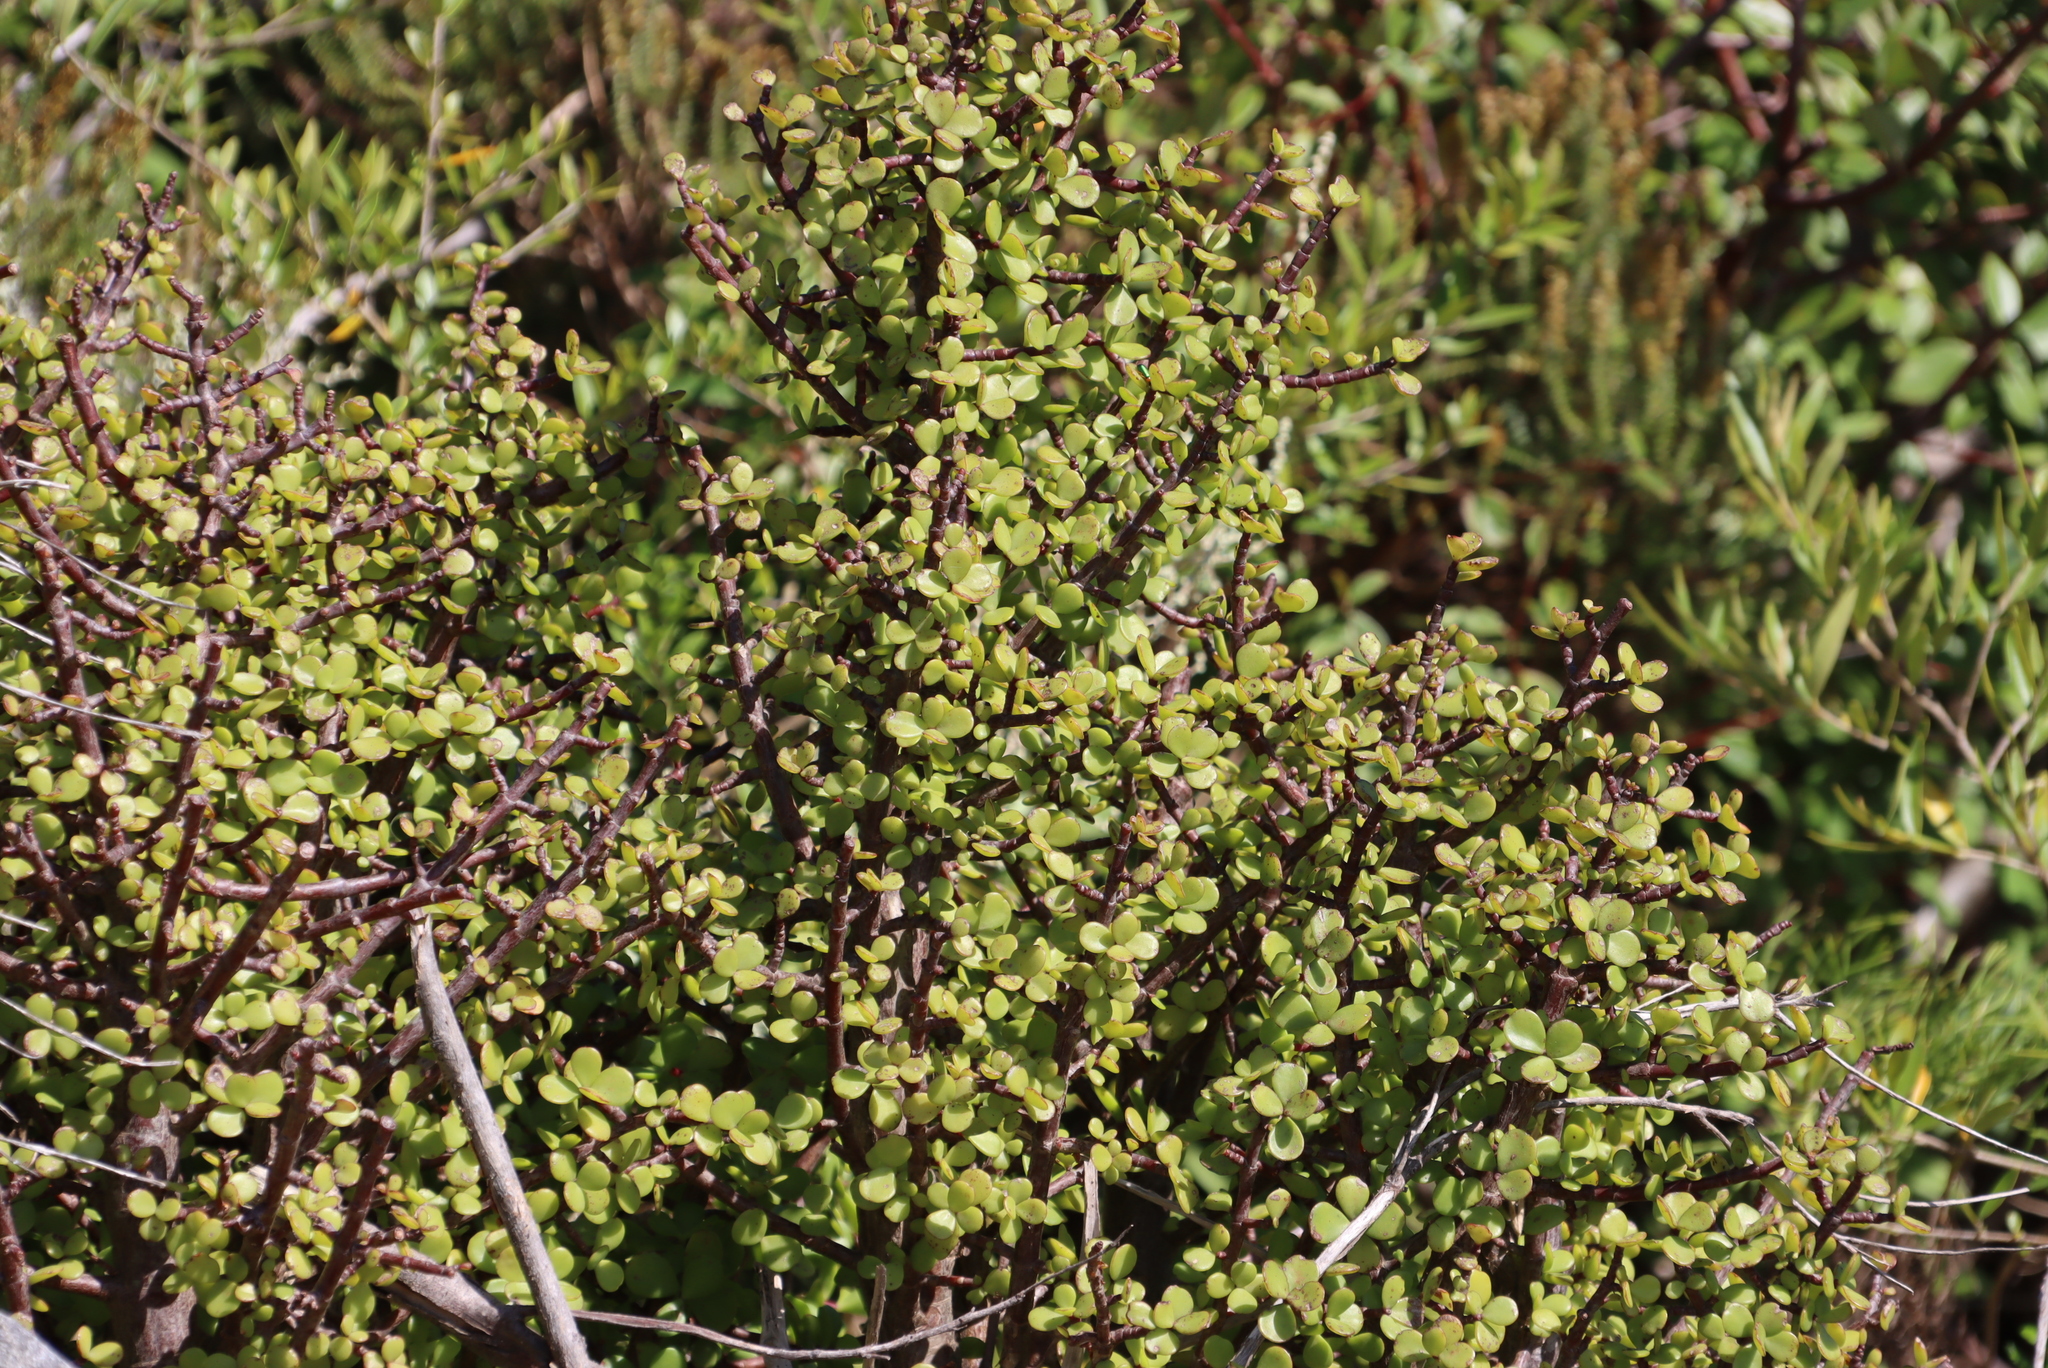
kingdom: Plantae
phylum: Tracheophyta
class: Magnoliopsida
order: Caryophyllales
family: Didiereaceae
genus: Portulacaria
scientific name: Portulacaria afra
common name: Elephant-bush
